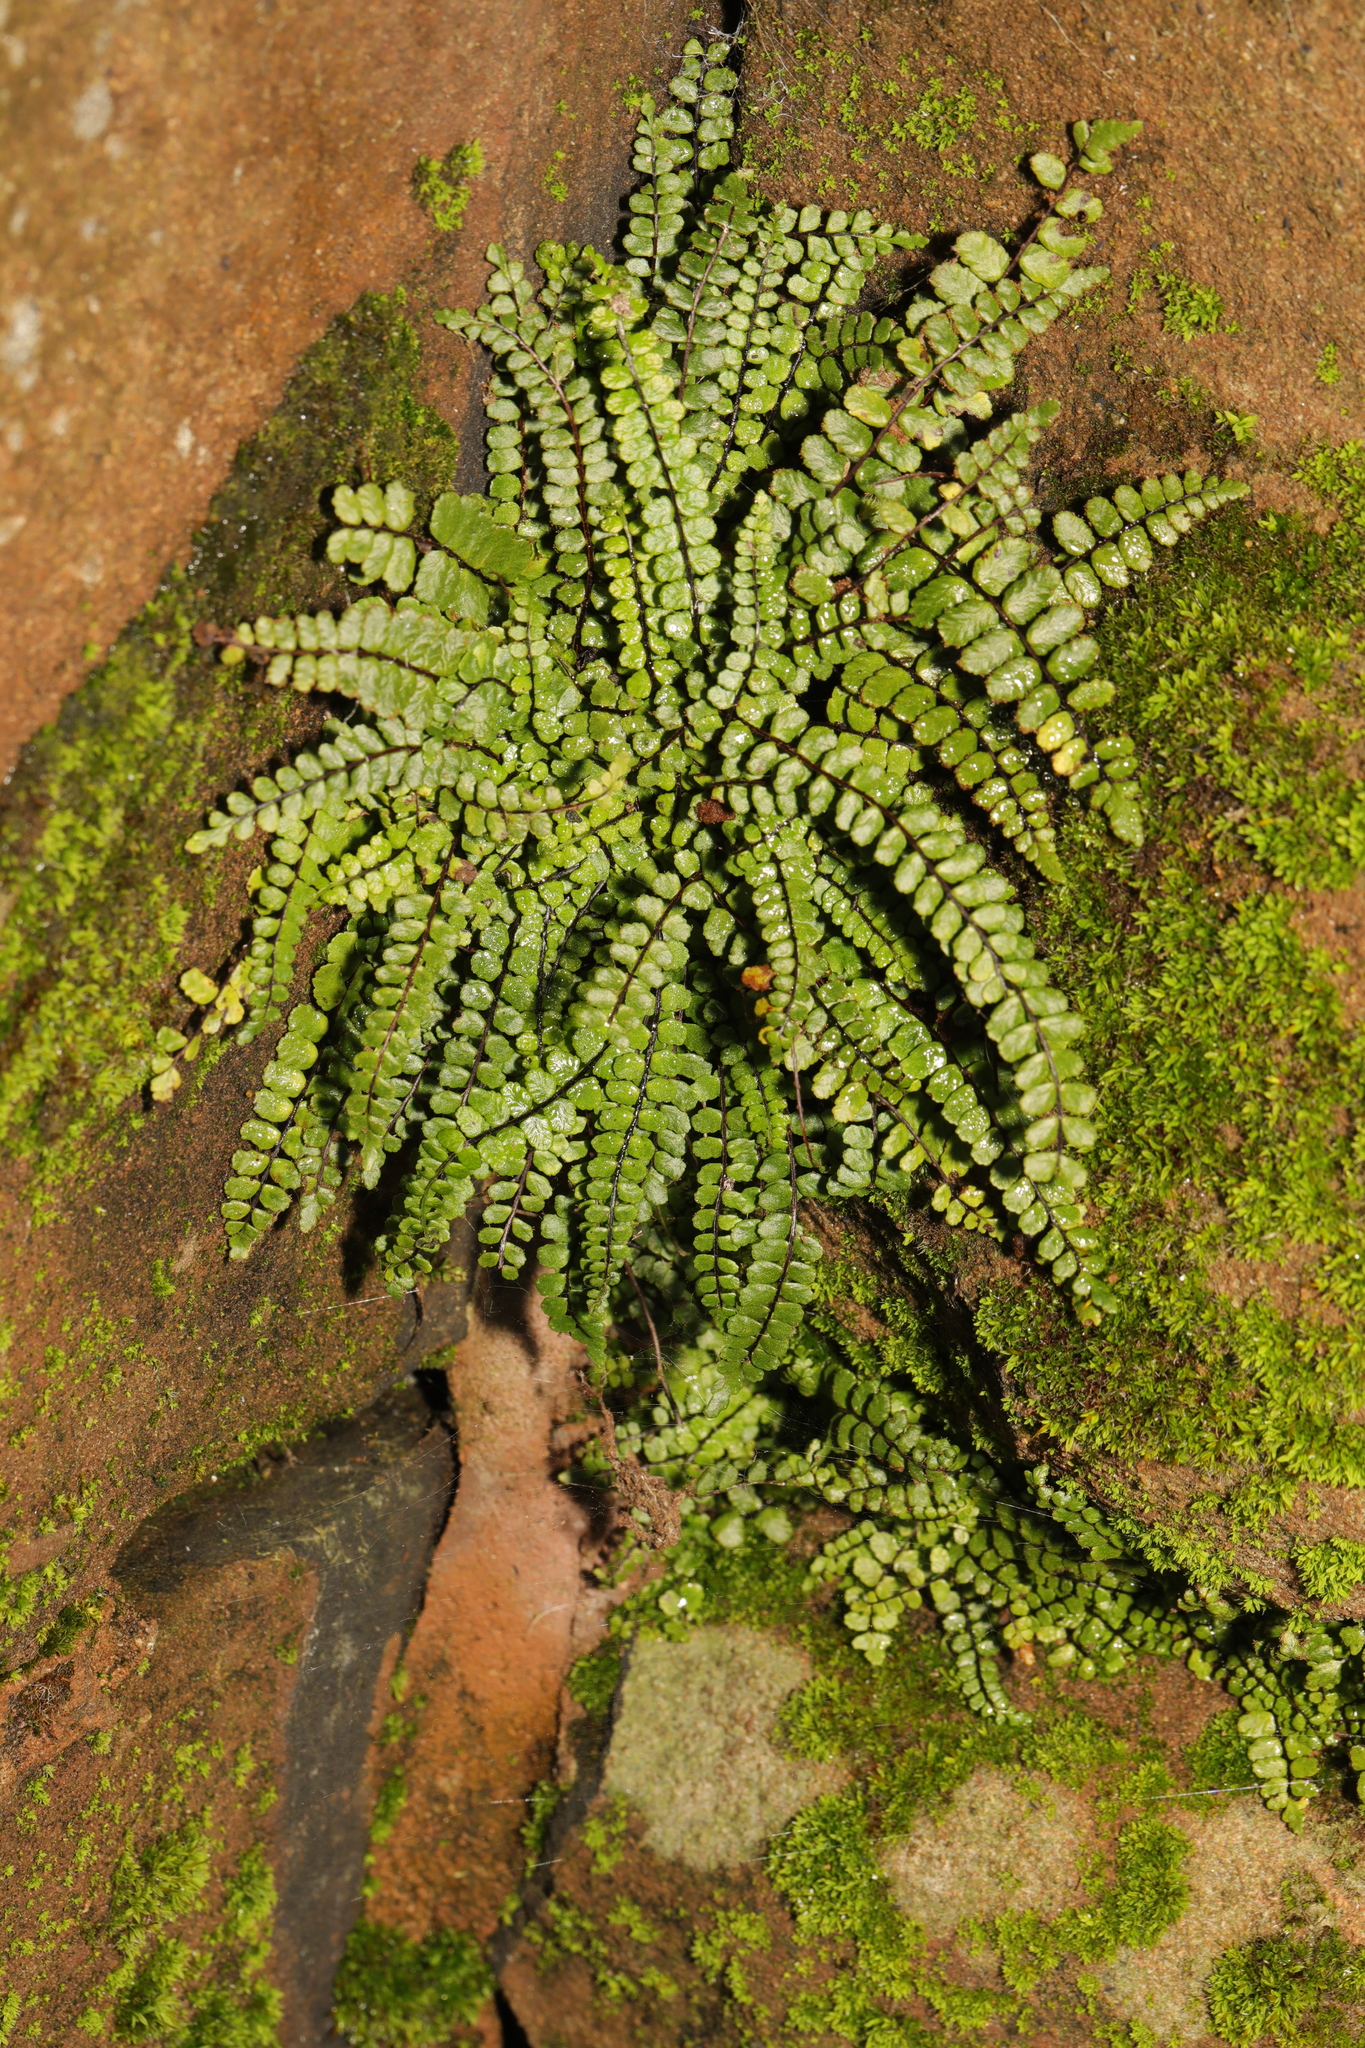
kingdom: Plantae
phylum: Tracheophyta
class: Polypodiopsida
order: Polypodiales
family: Aspleniaceae
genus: Asplenium
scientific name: Asplenium trichomanes
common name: Maidenhair spleenwort
